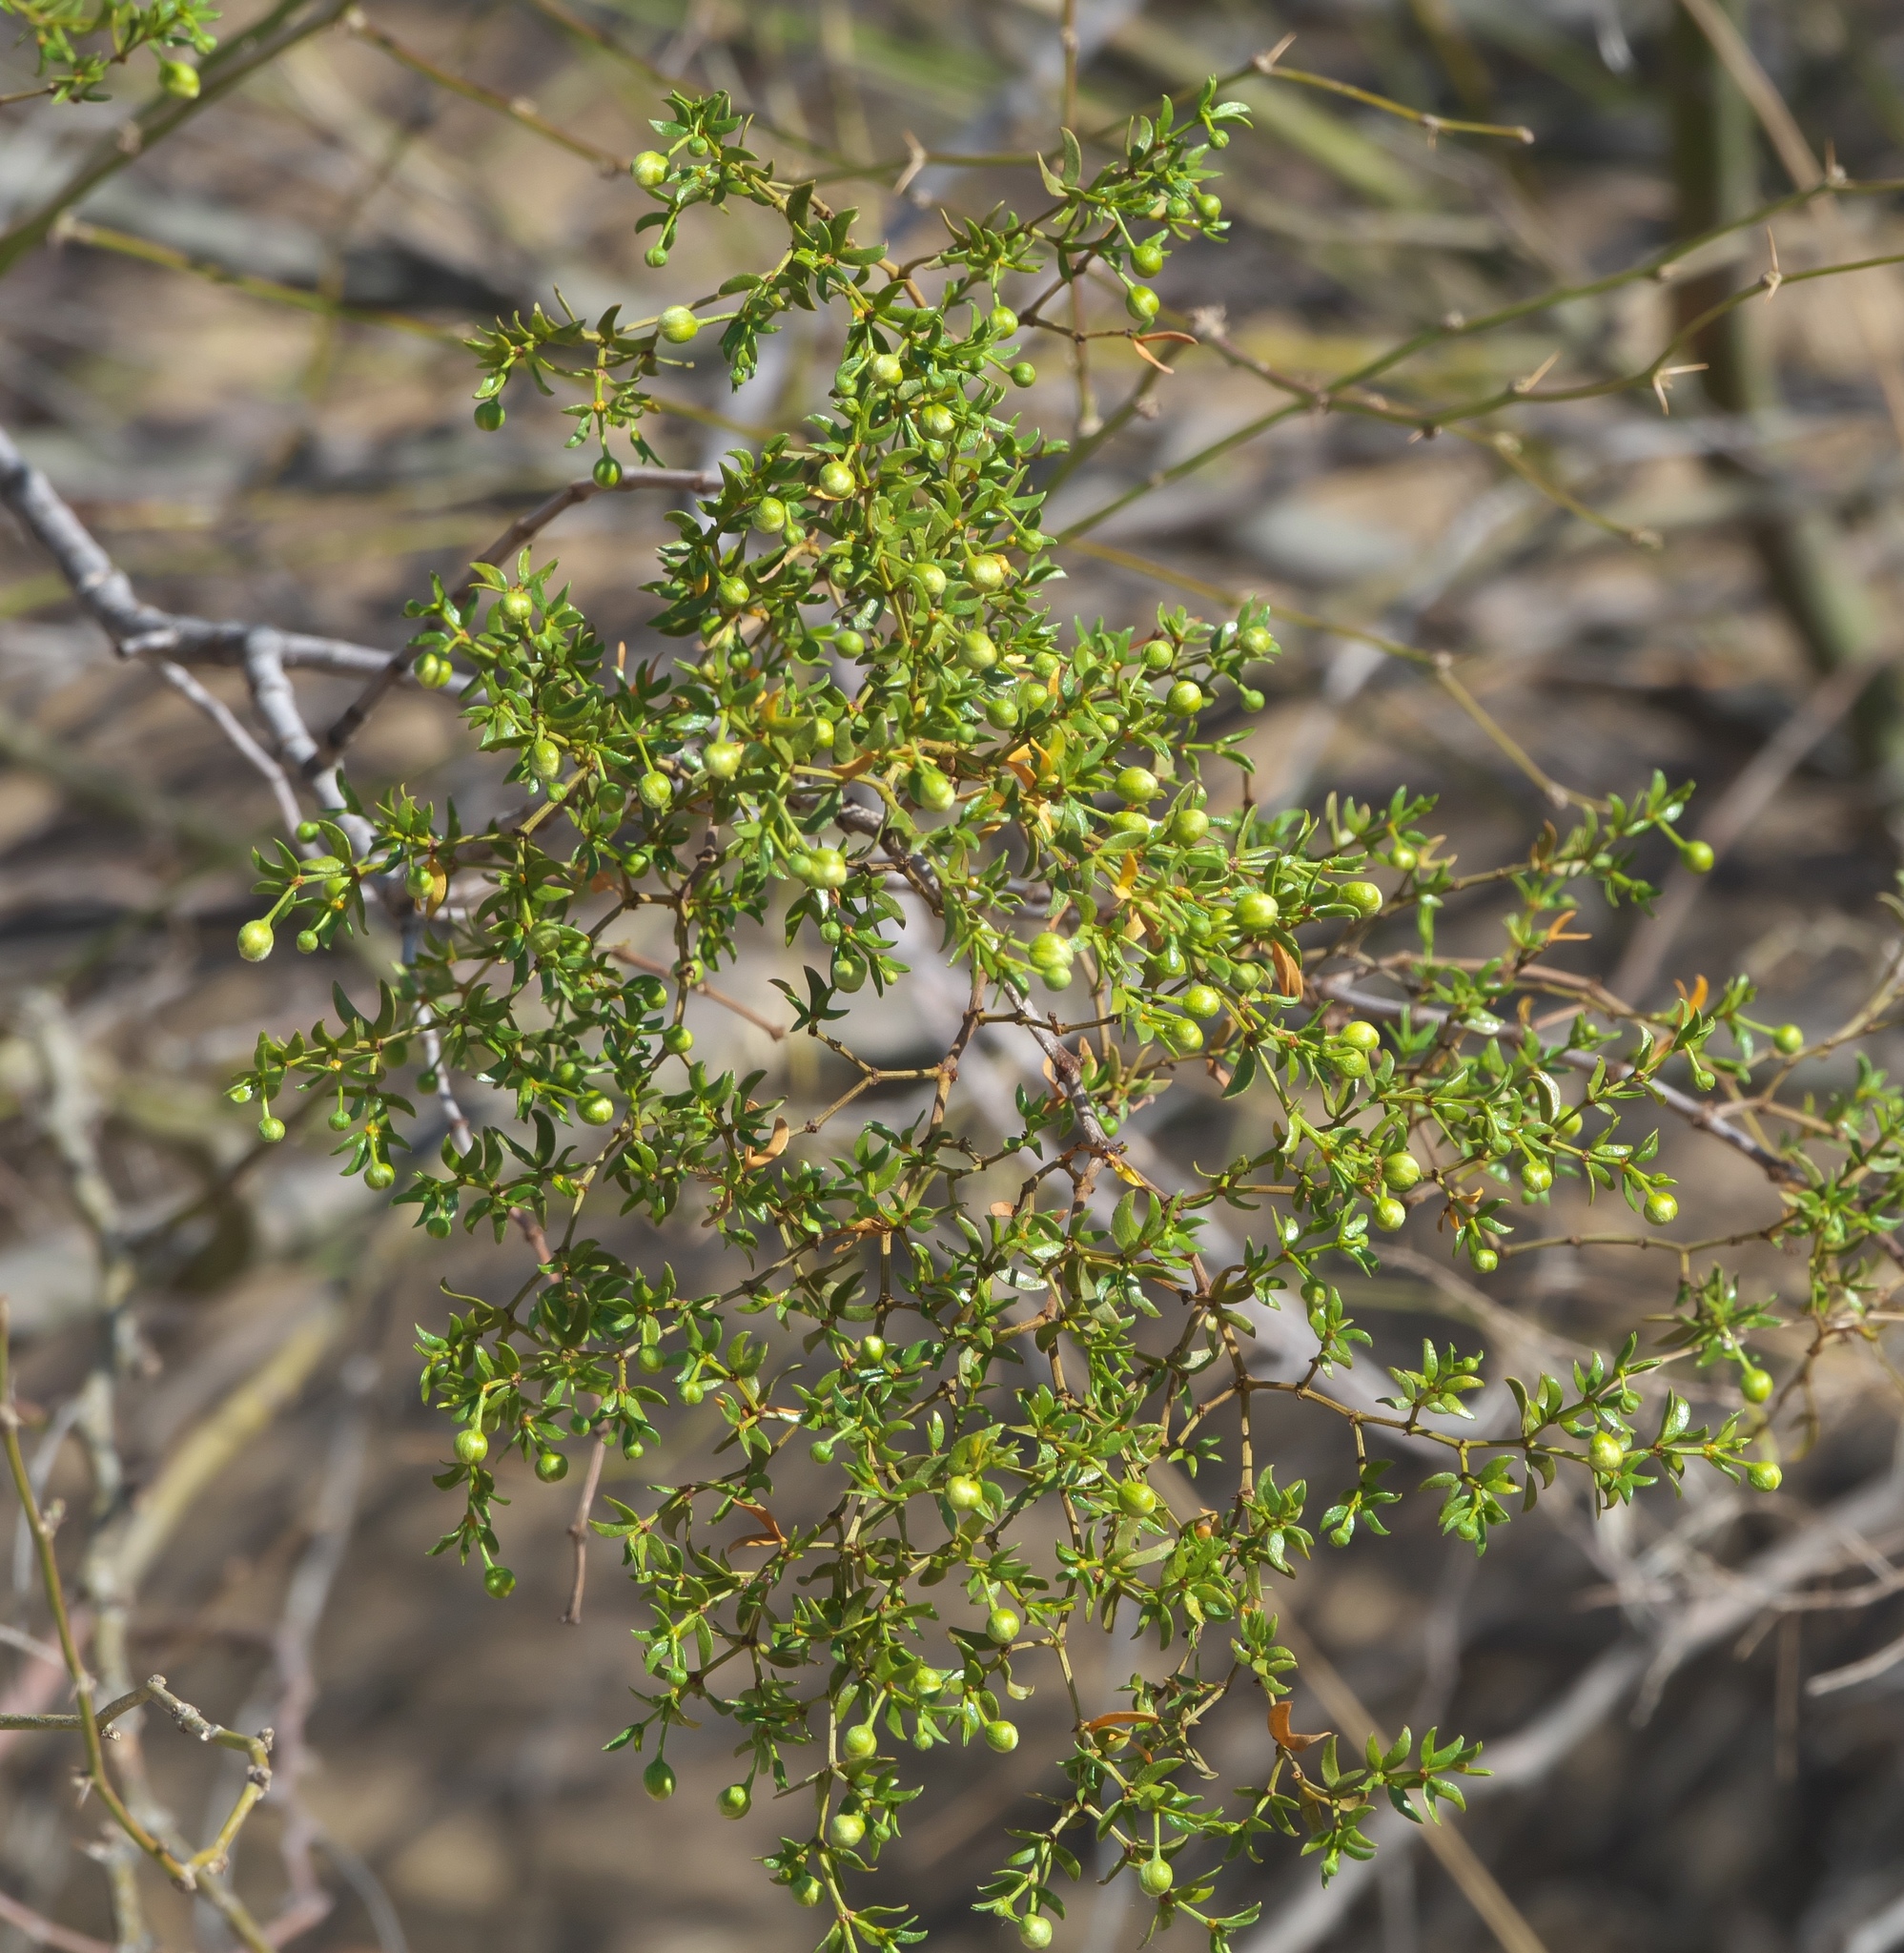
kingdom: Plantae
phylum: Tracheophyta
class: Magnoliopsida
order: Zygophyllales
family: Zygophyllaceae
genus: Larrea
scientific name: Larrea tridentata
